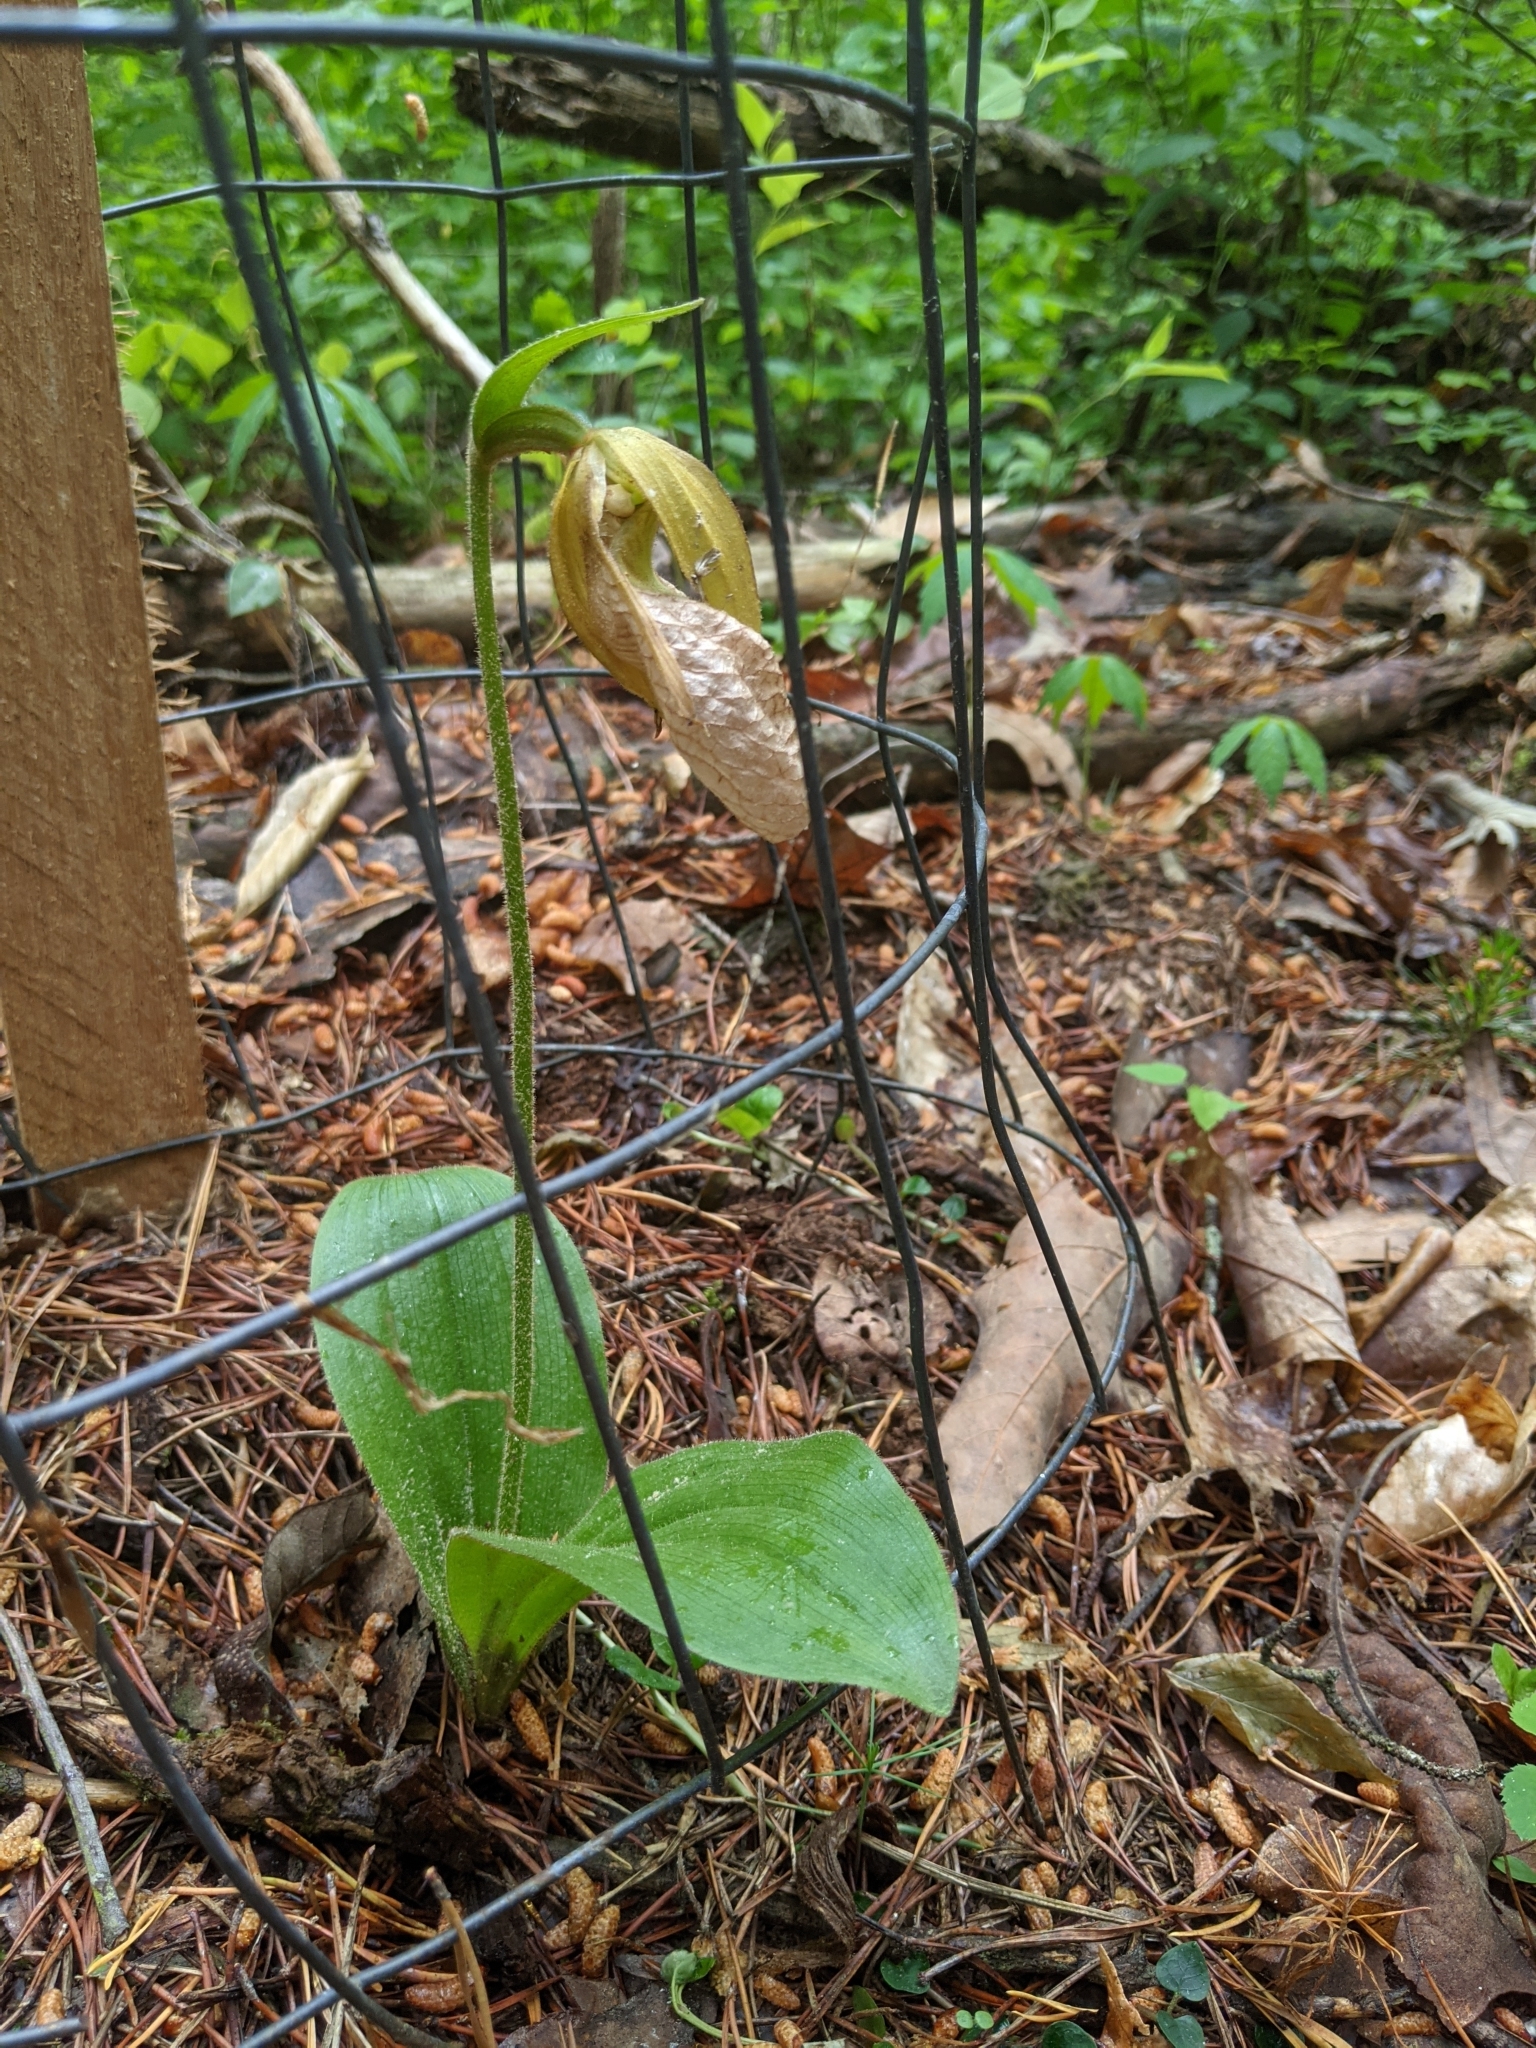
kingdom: Plantae
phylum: Tracheophyta
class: Liliopsida
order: Asparagales
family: Orchidaceae
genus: Cypripedium
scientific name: Cypripedium acaule
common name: Pink lady's-slipper
